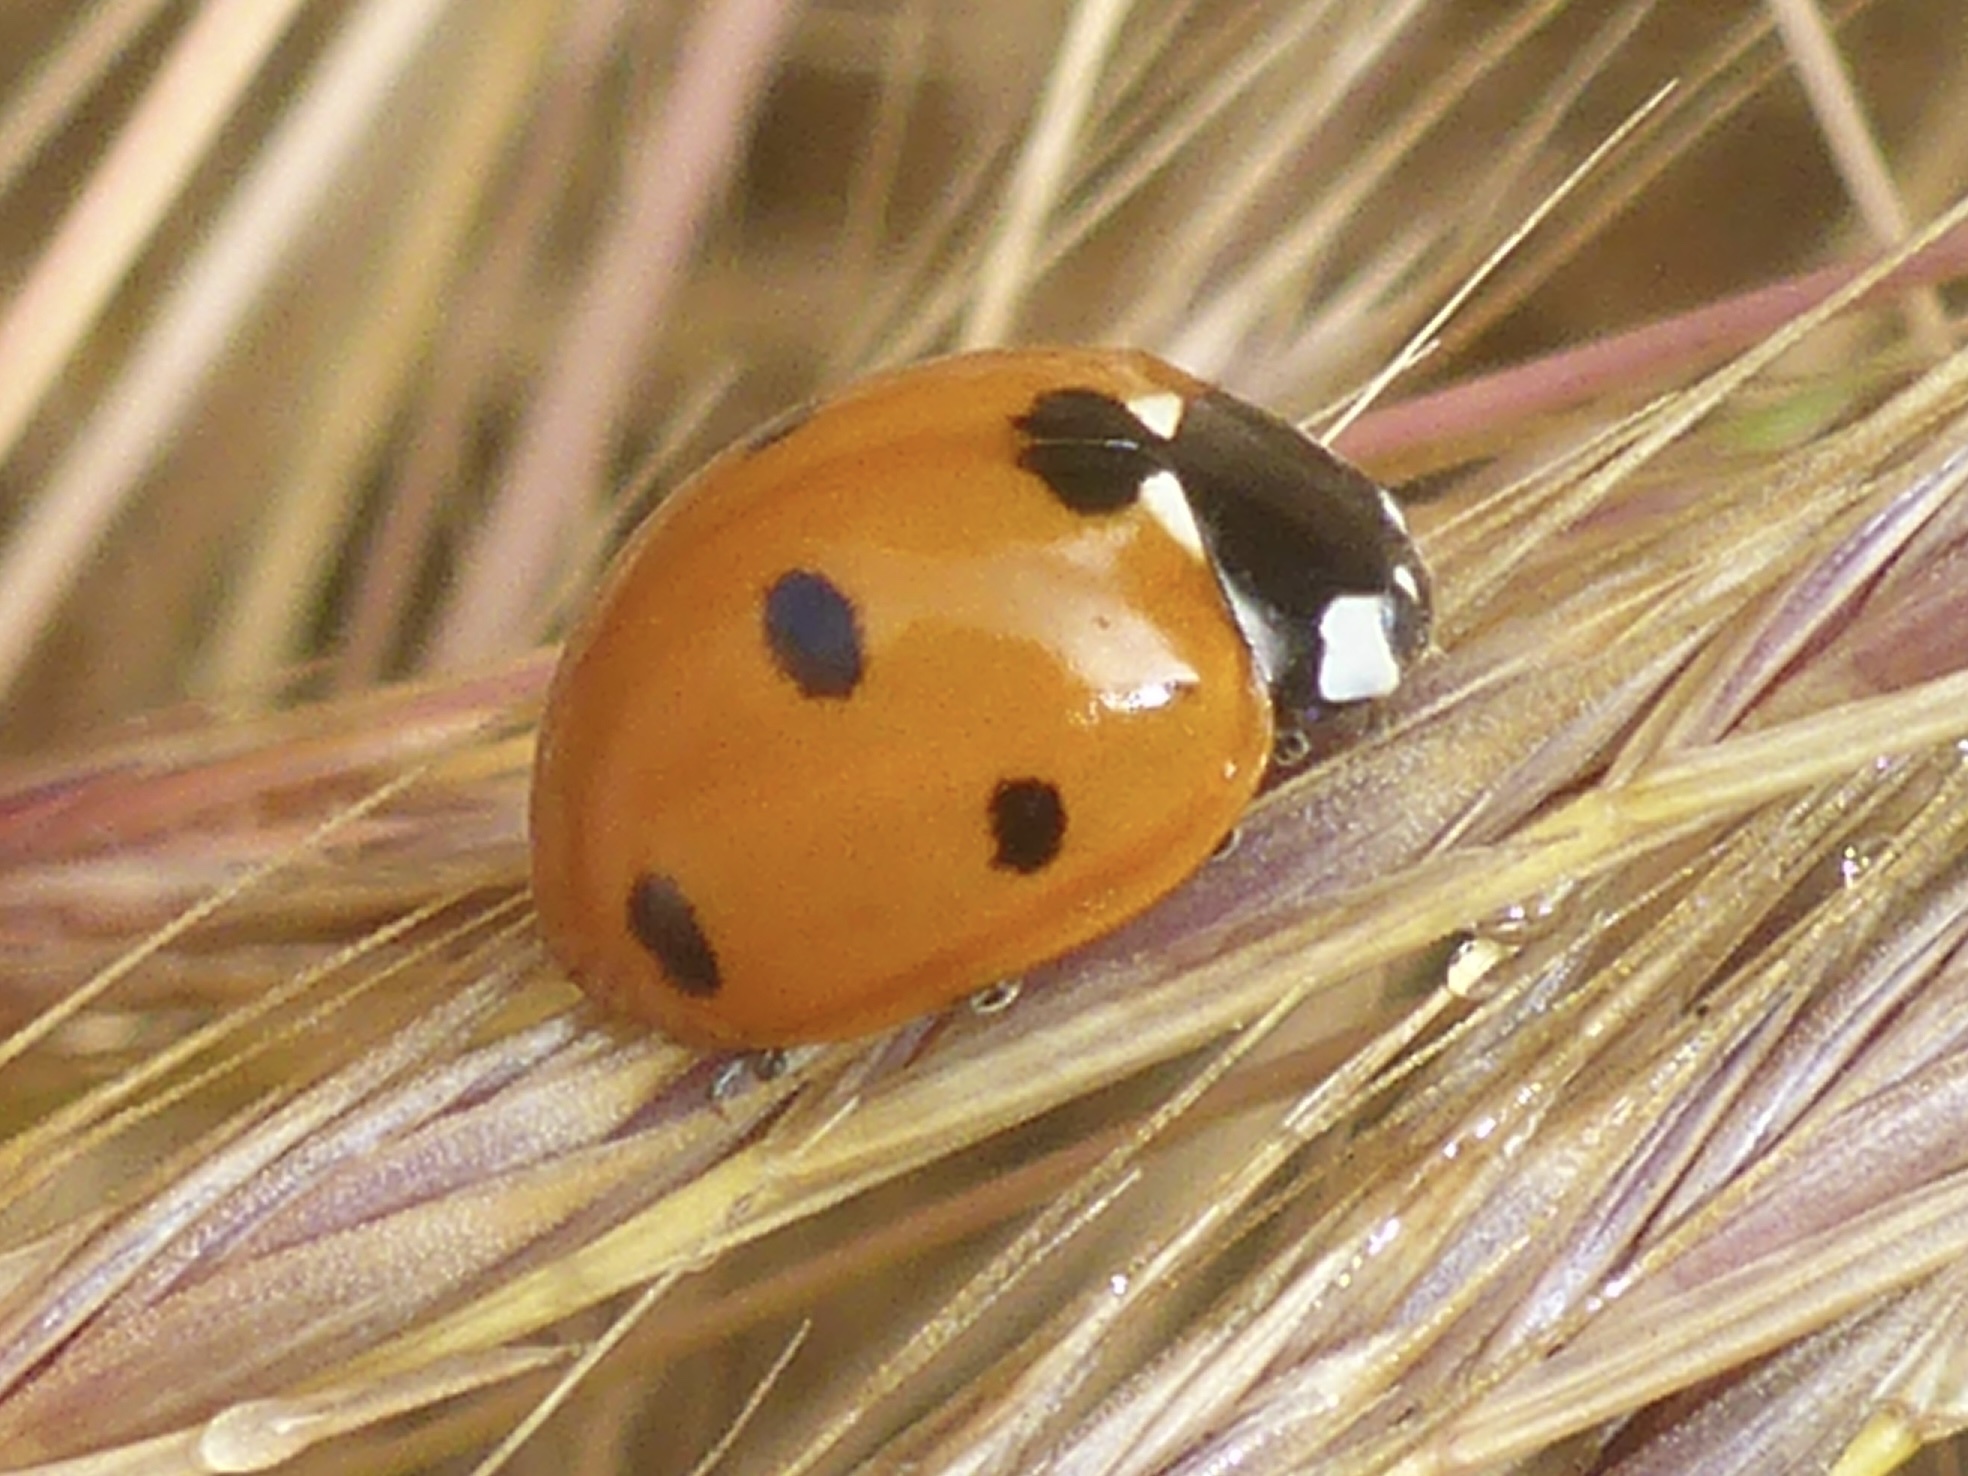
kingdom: Animalia
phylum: Arthropoda
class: Insecta
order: Coleoptera
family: Coccinellidae
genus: Coccinella
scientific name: Coccinella septempunctata
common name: Sevenspotted lady beetle
